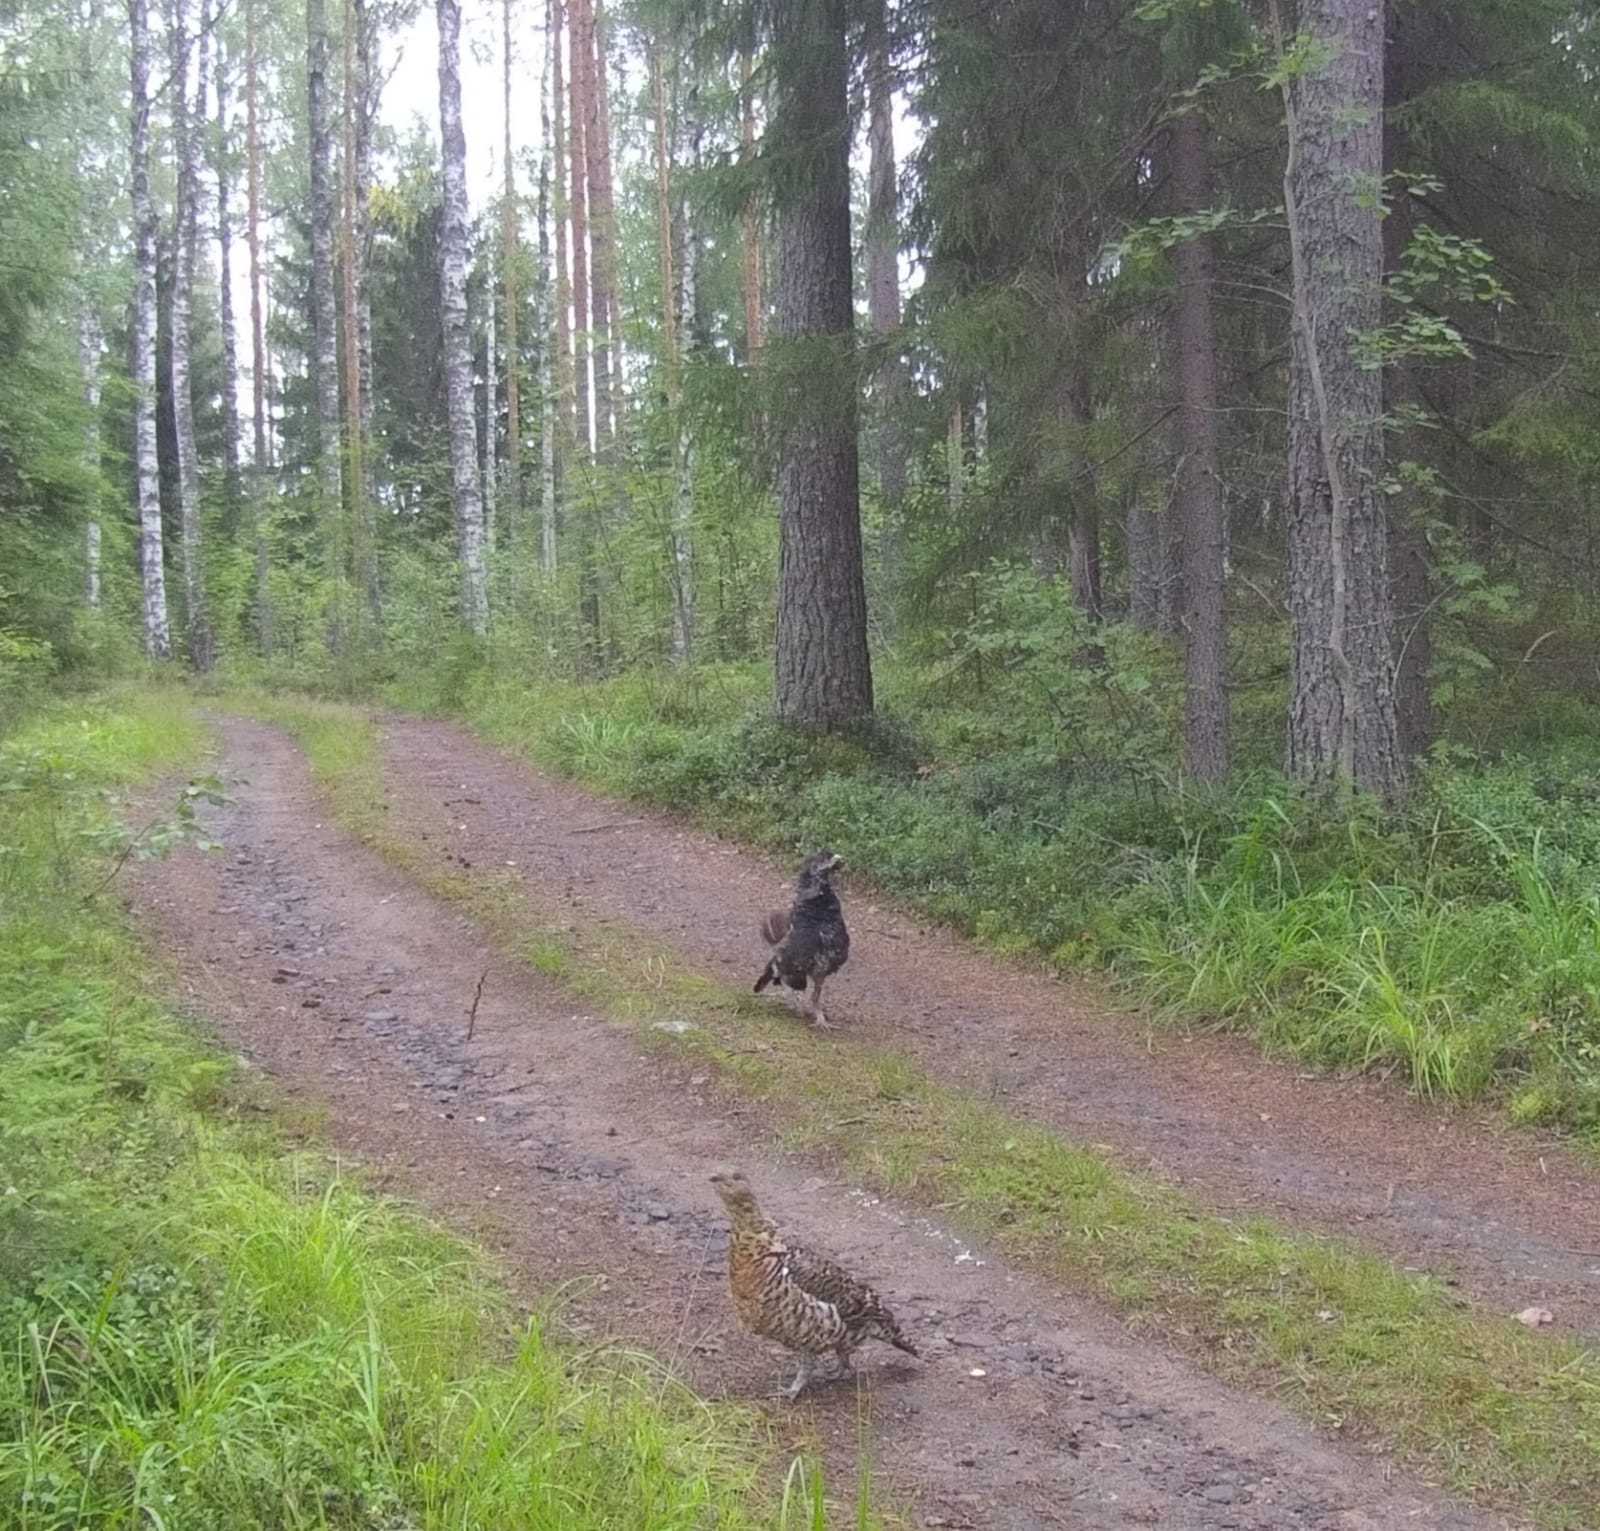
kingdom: Animalia
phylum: Chordata
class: Aves
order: Galliformes
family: Phasianidae
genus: Tetrao
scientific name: Tetrao urogallus
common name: Western capercaillie
